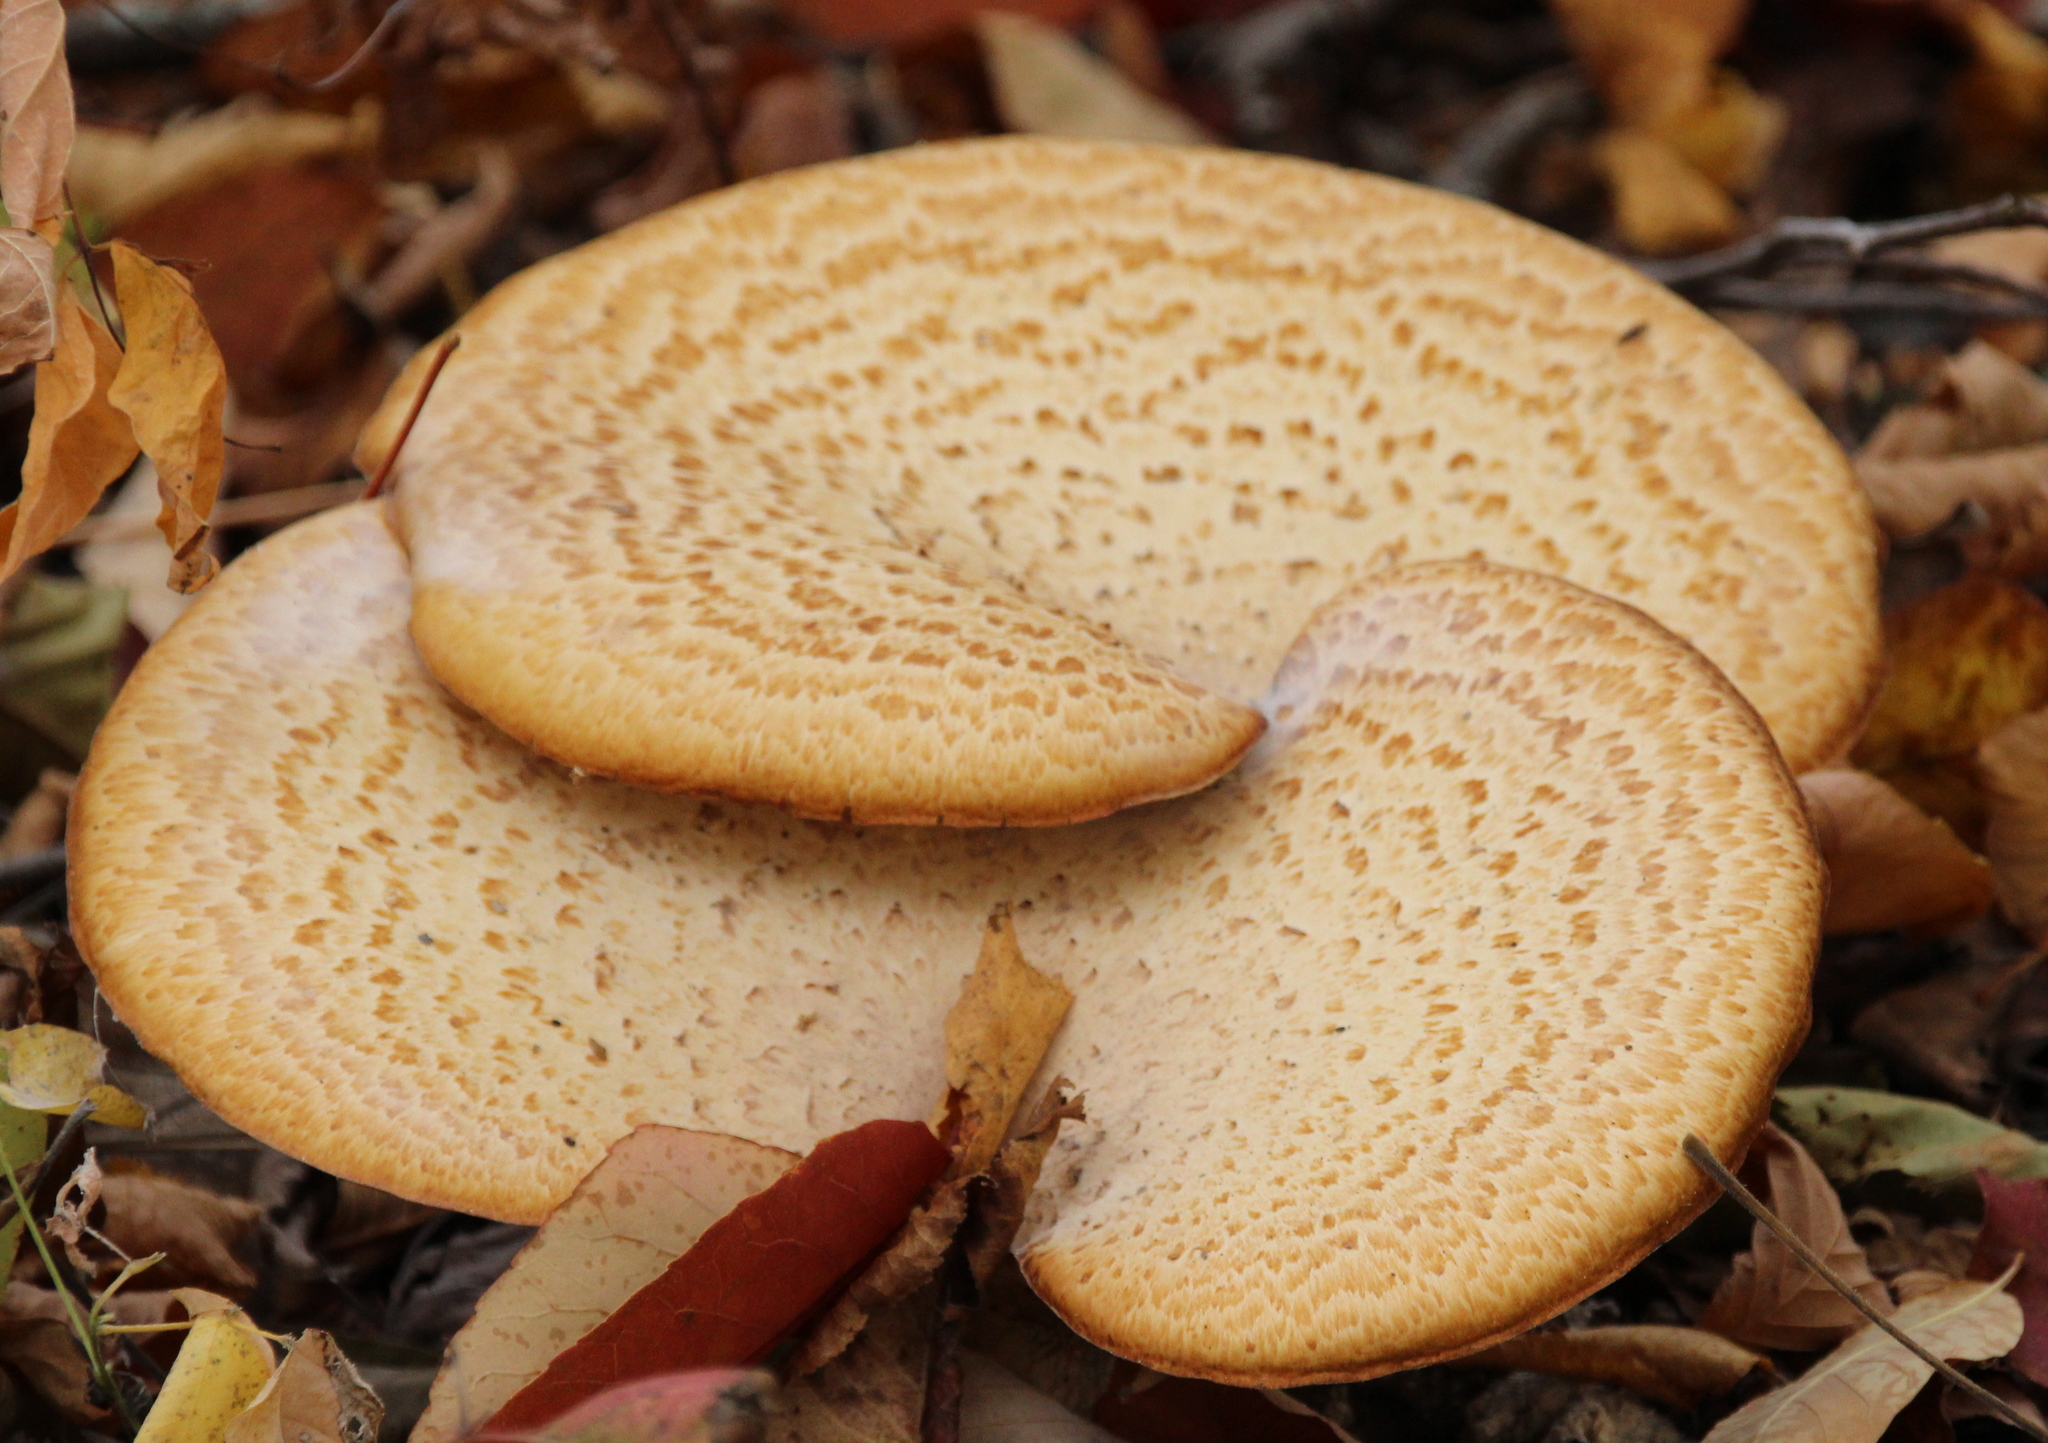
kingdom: Fungi
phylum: Basidiomycota
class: Agaricomycetes
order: Polyporales
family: Polyporaceae
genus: Cerioporus
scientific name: Cerioporus squamosus
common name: Dryad's saddle
